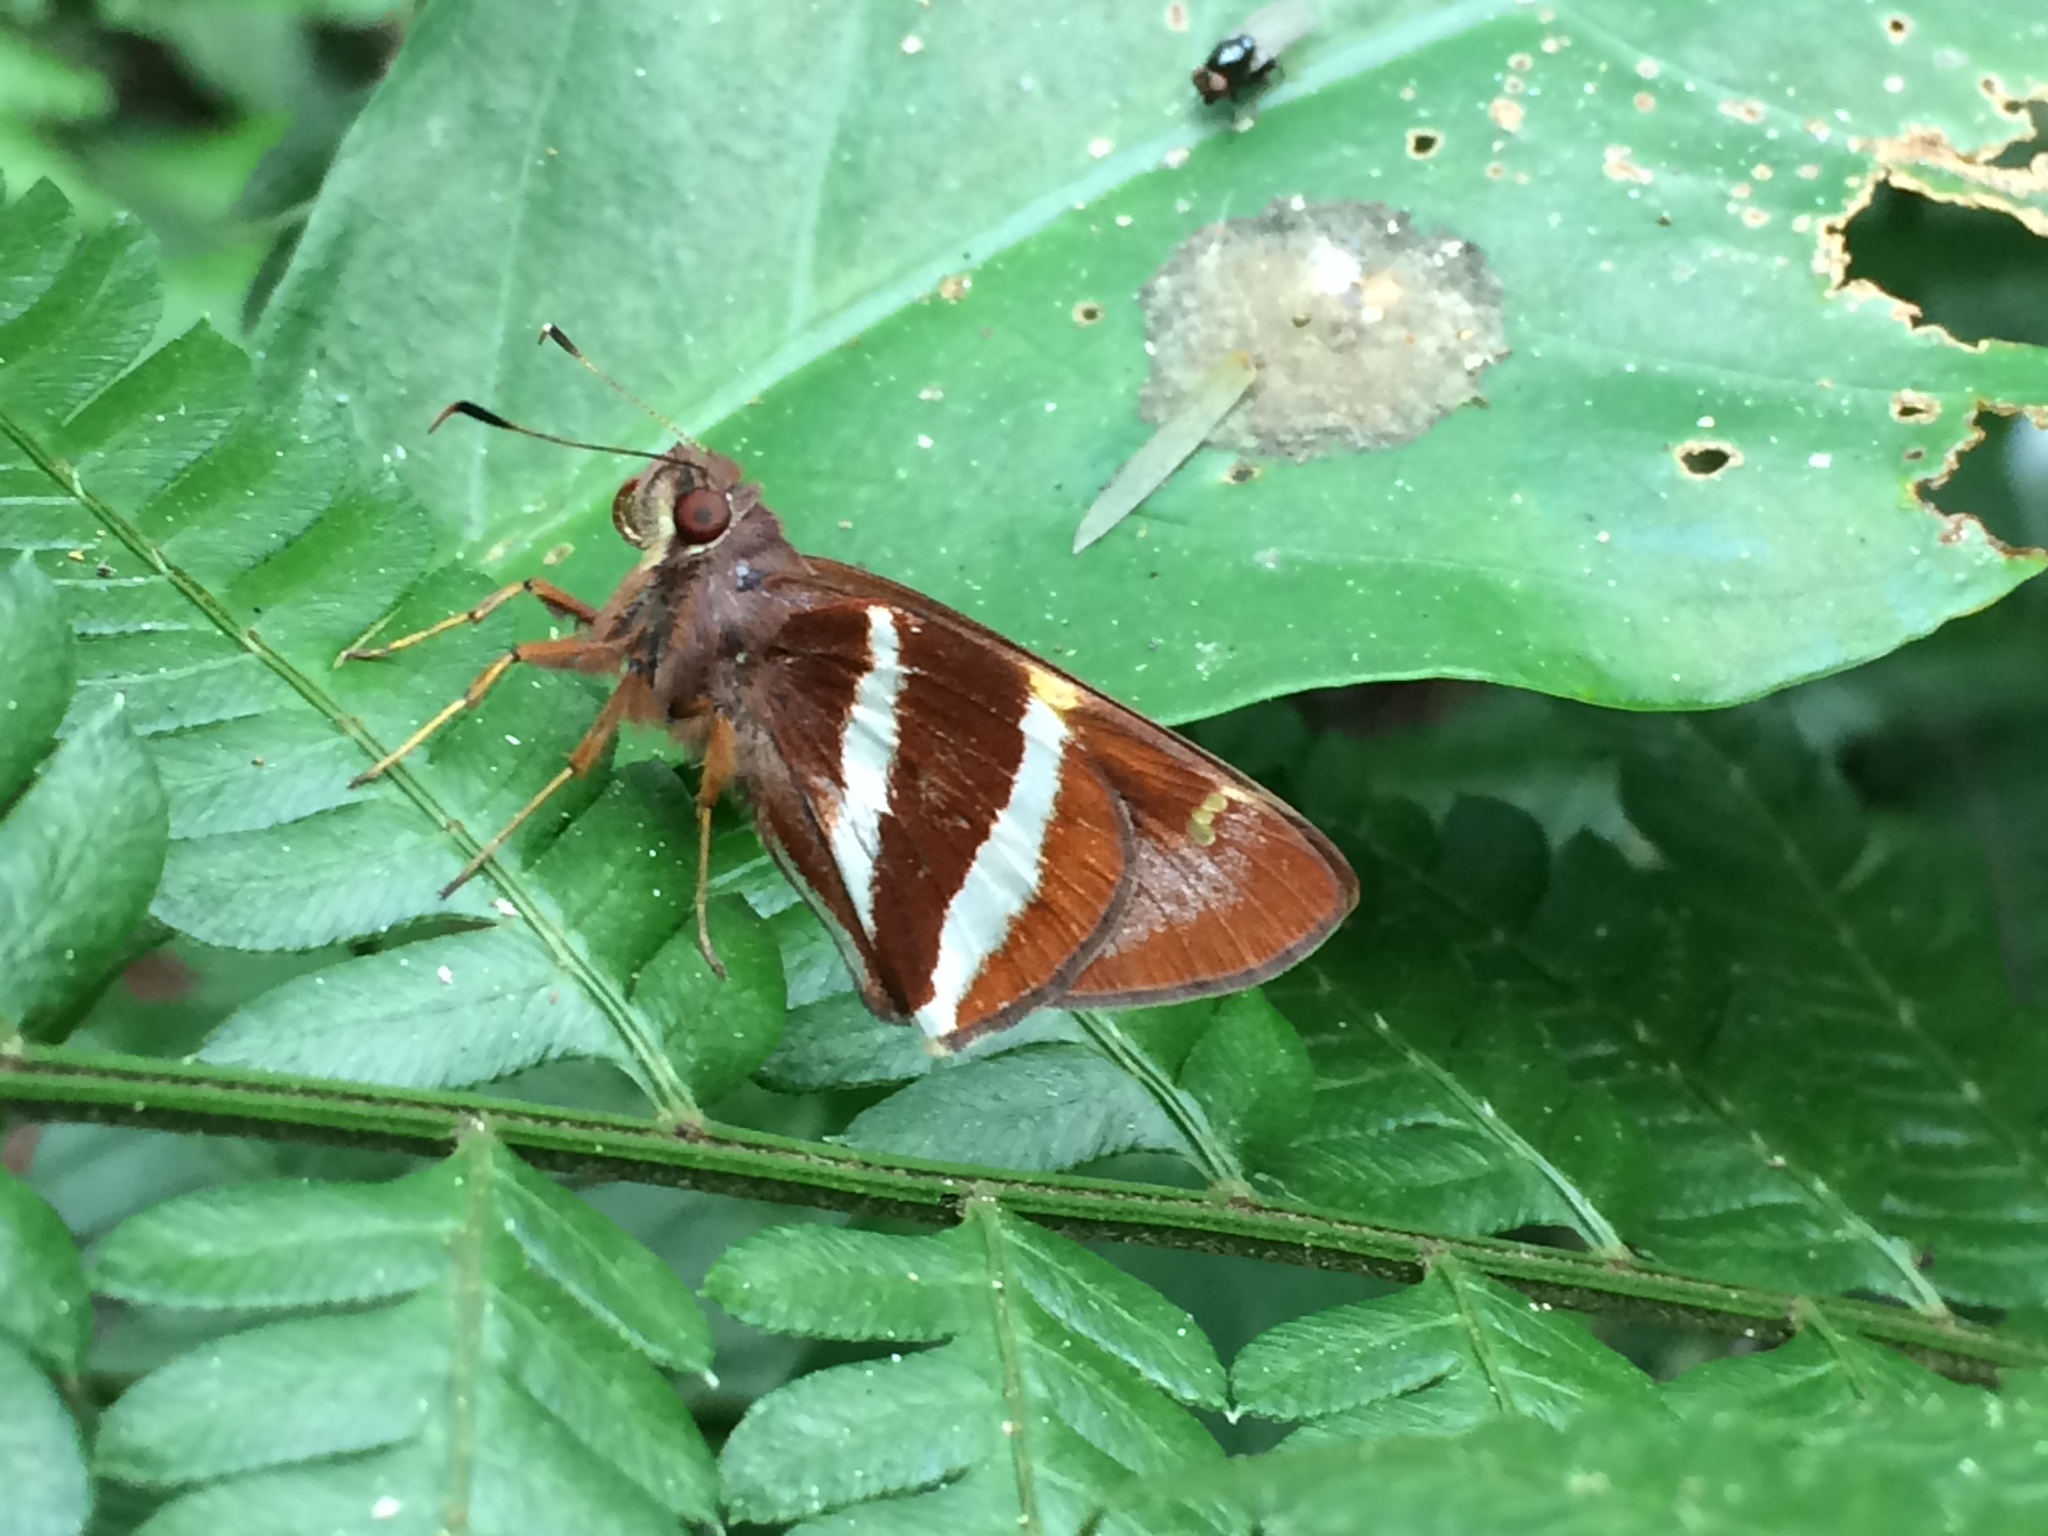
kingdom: Animalia
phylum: Arthropoda
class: Insecta
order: Lepidoptera
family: Hesperiidae
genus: Lycas
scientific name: Lycas
